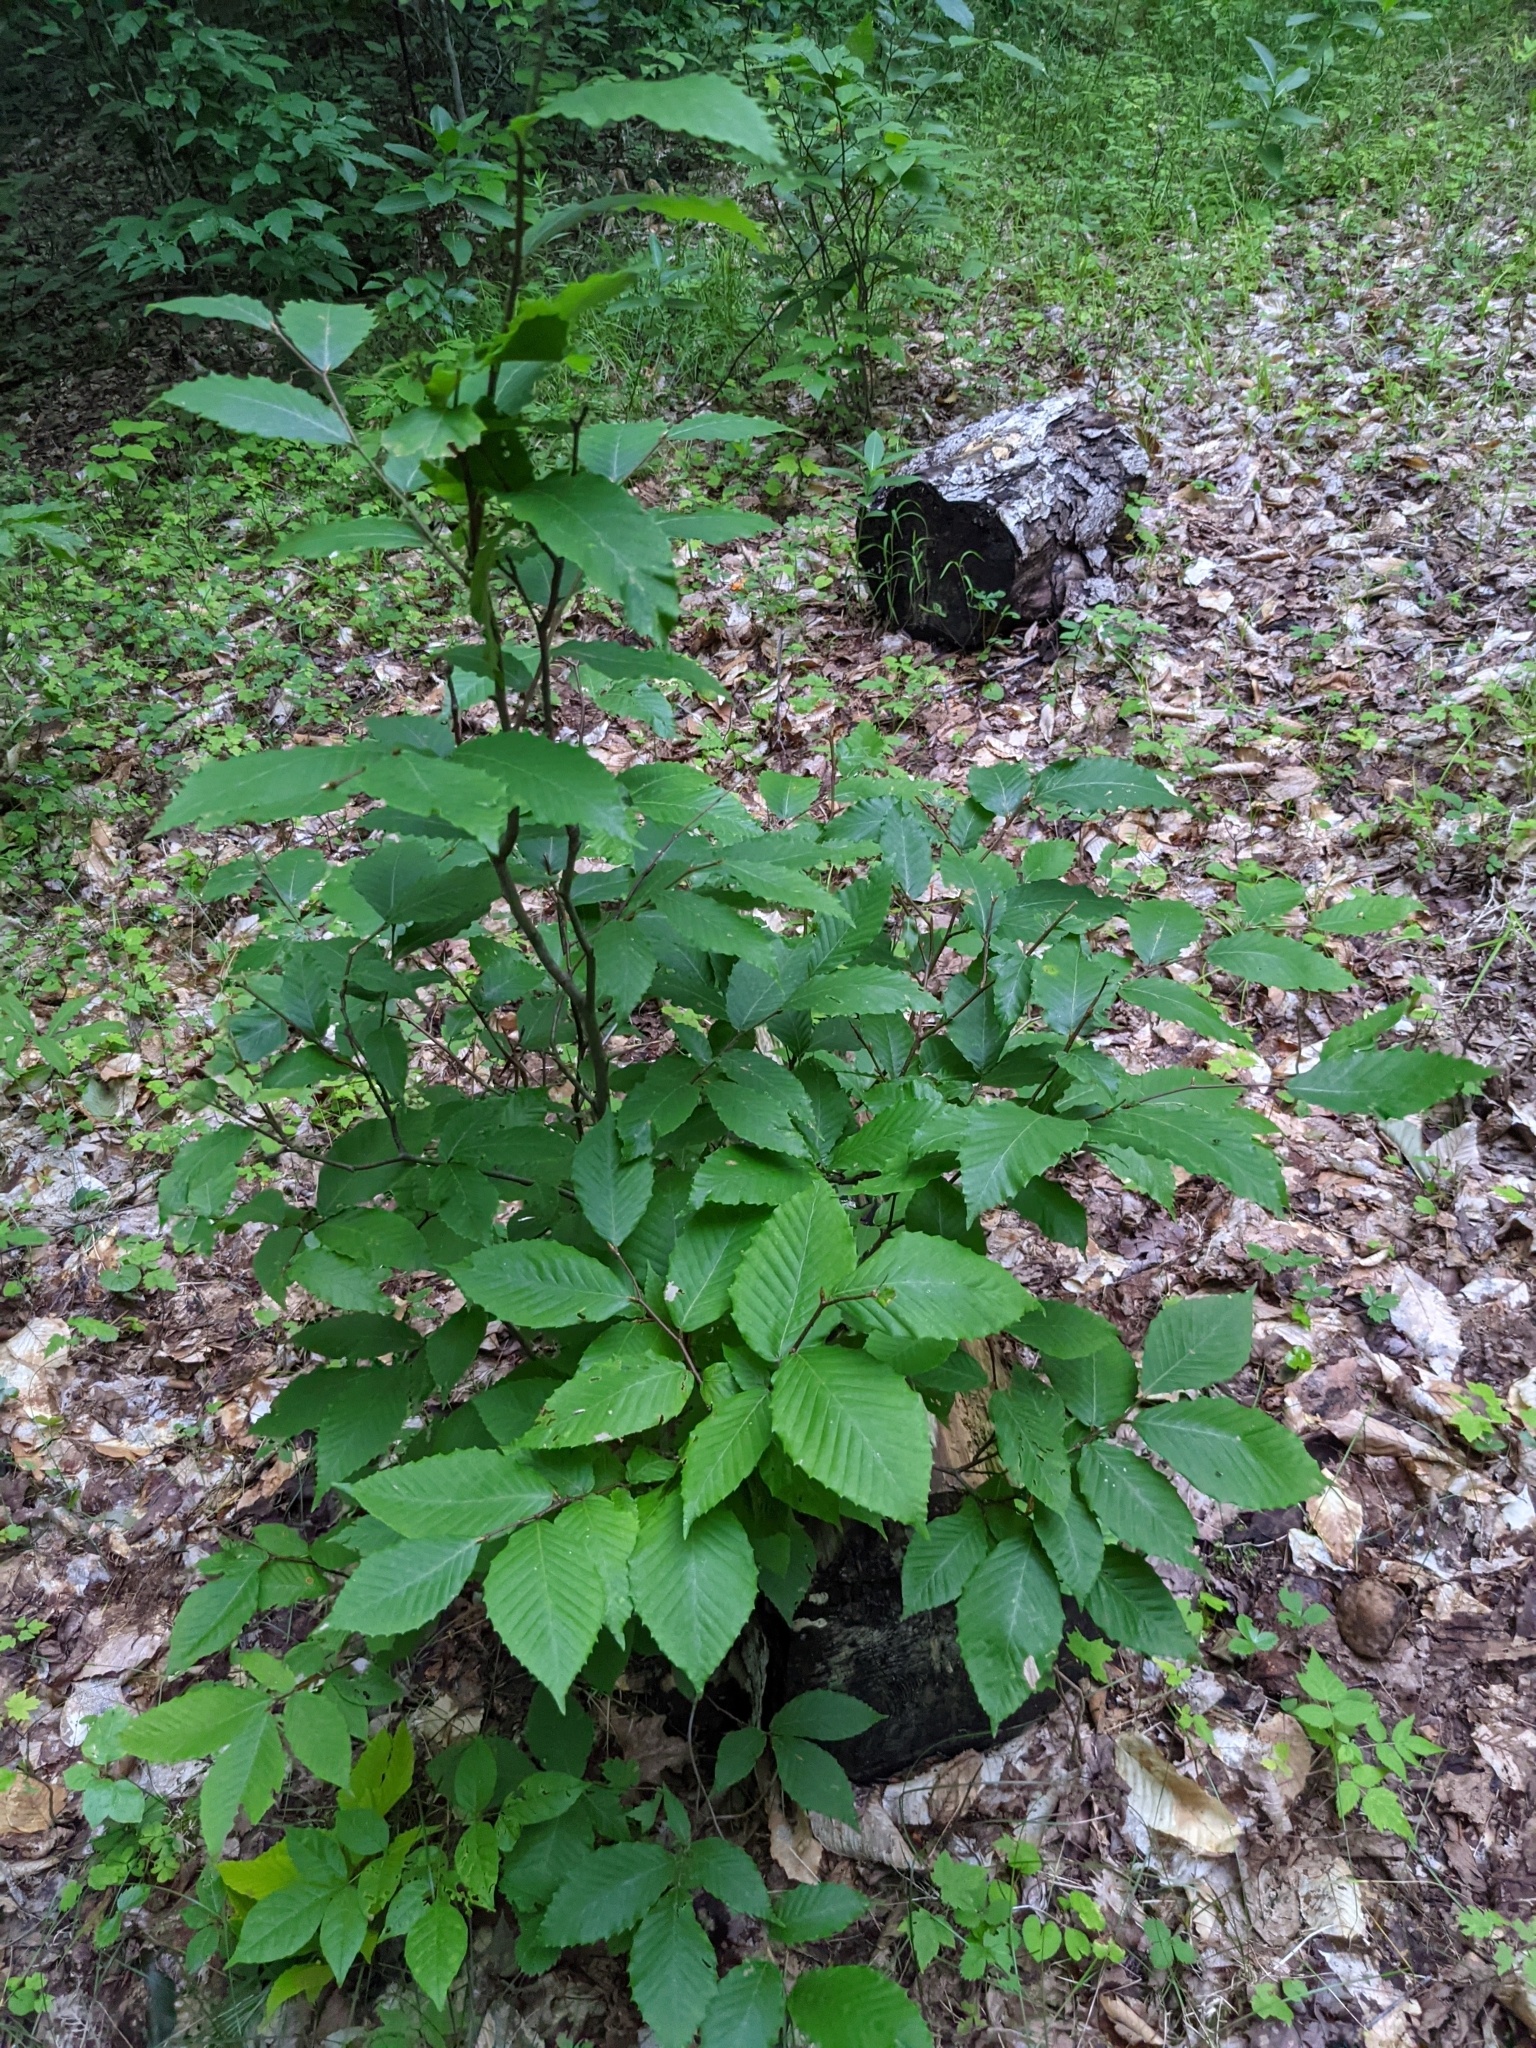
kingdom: Plantae
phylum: Tracheophyta
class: Magnoliopsida
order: Fagales
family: Fagaceae
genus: Fagus
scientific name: Fagus grandifolia
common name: American beech
